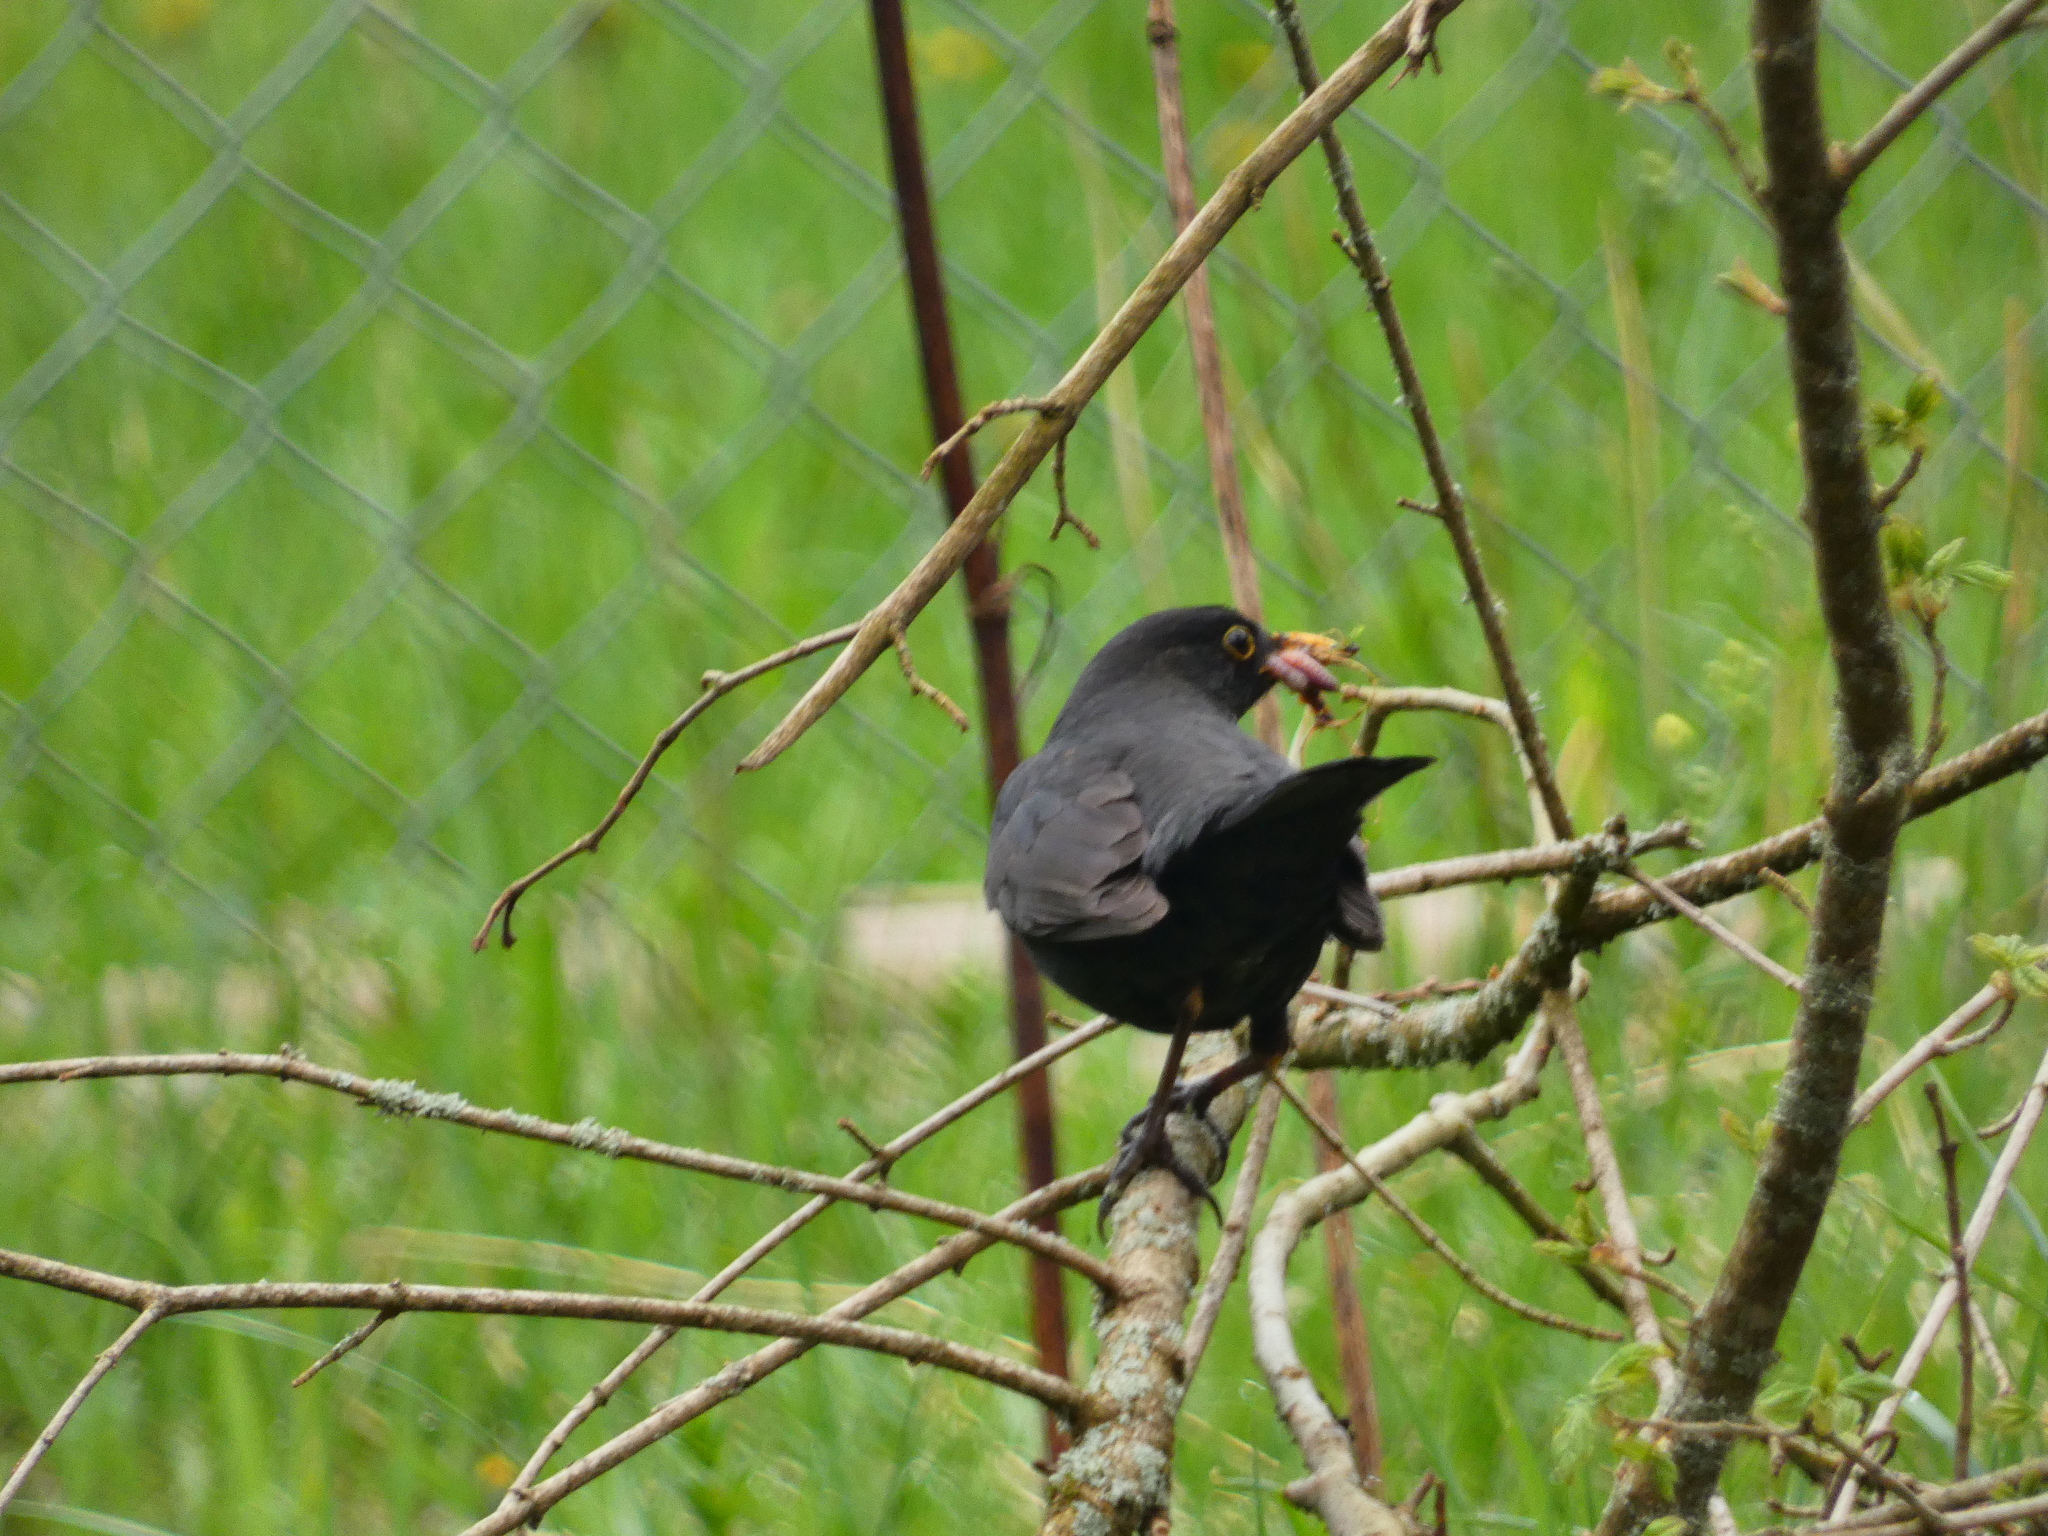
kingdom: Animalia
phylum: Chordata
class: Aves
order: Passeriformes
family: Turdidae
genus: Turdus
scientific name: Turdus merula
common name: Common blackbird
